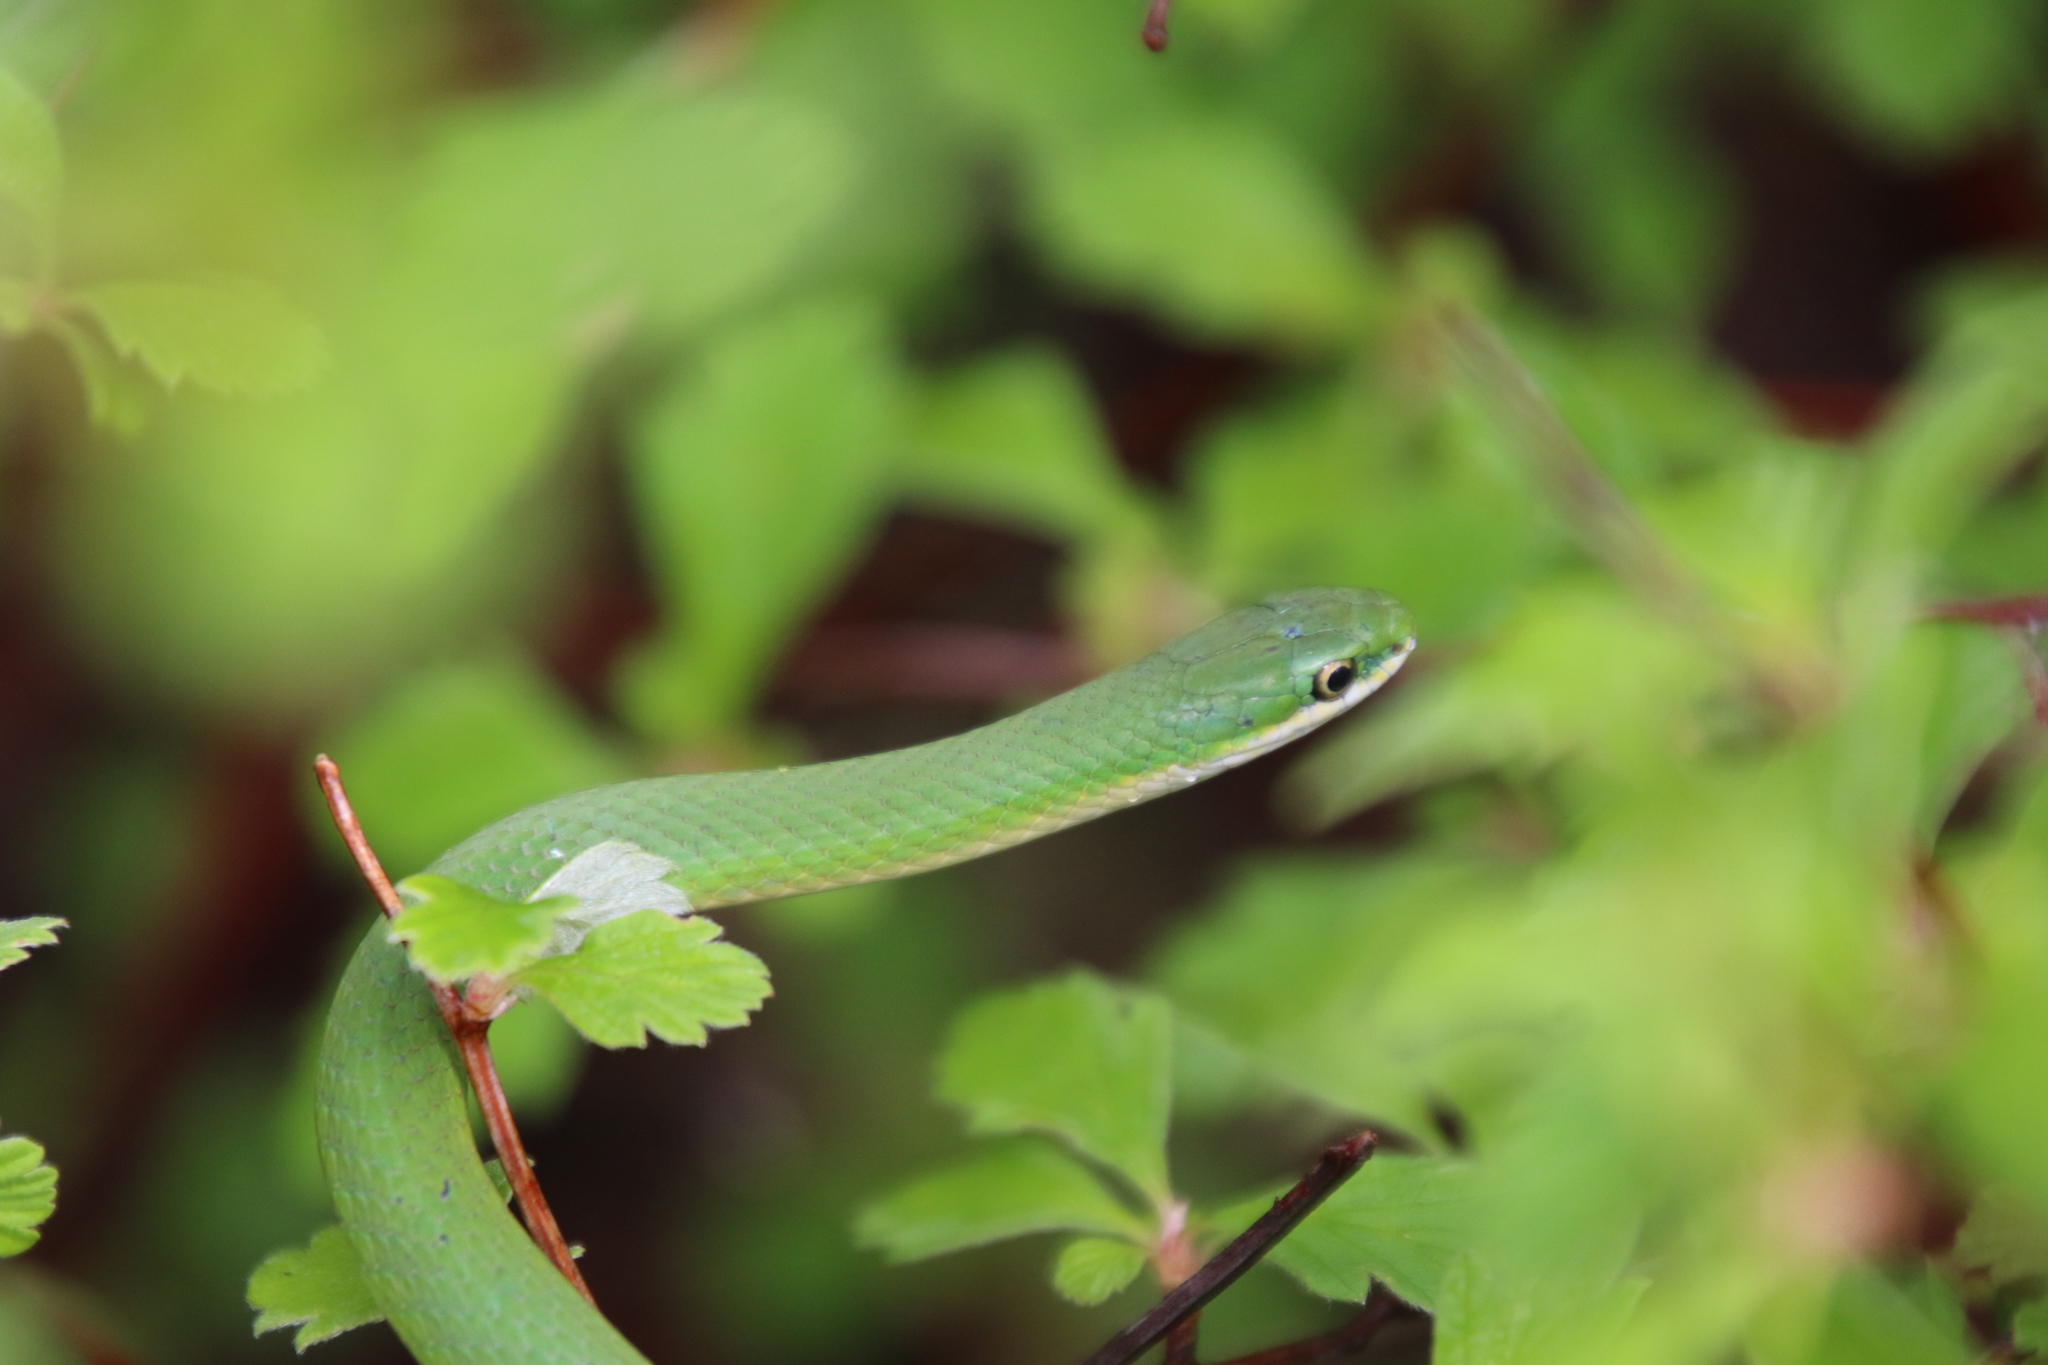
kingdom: Animalia
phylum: Chordata
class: Squamata
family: Colubridae
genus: Opheodrys
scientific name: Opheodrys vernalis
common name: Smooth green snake
